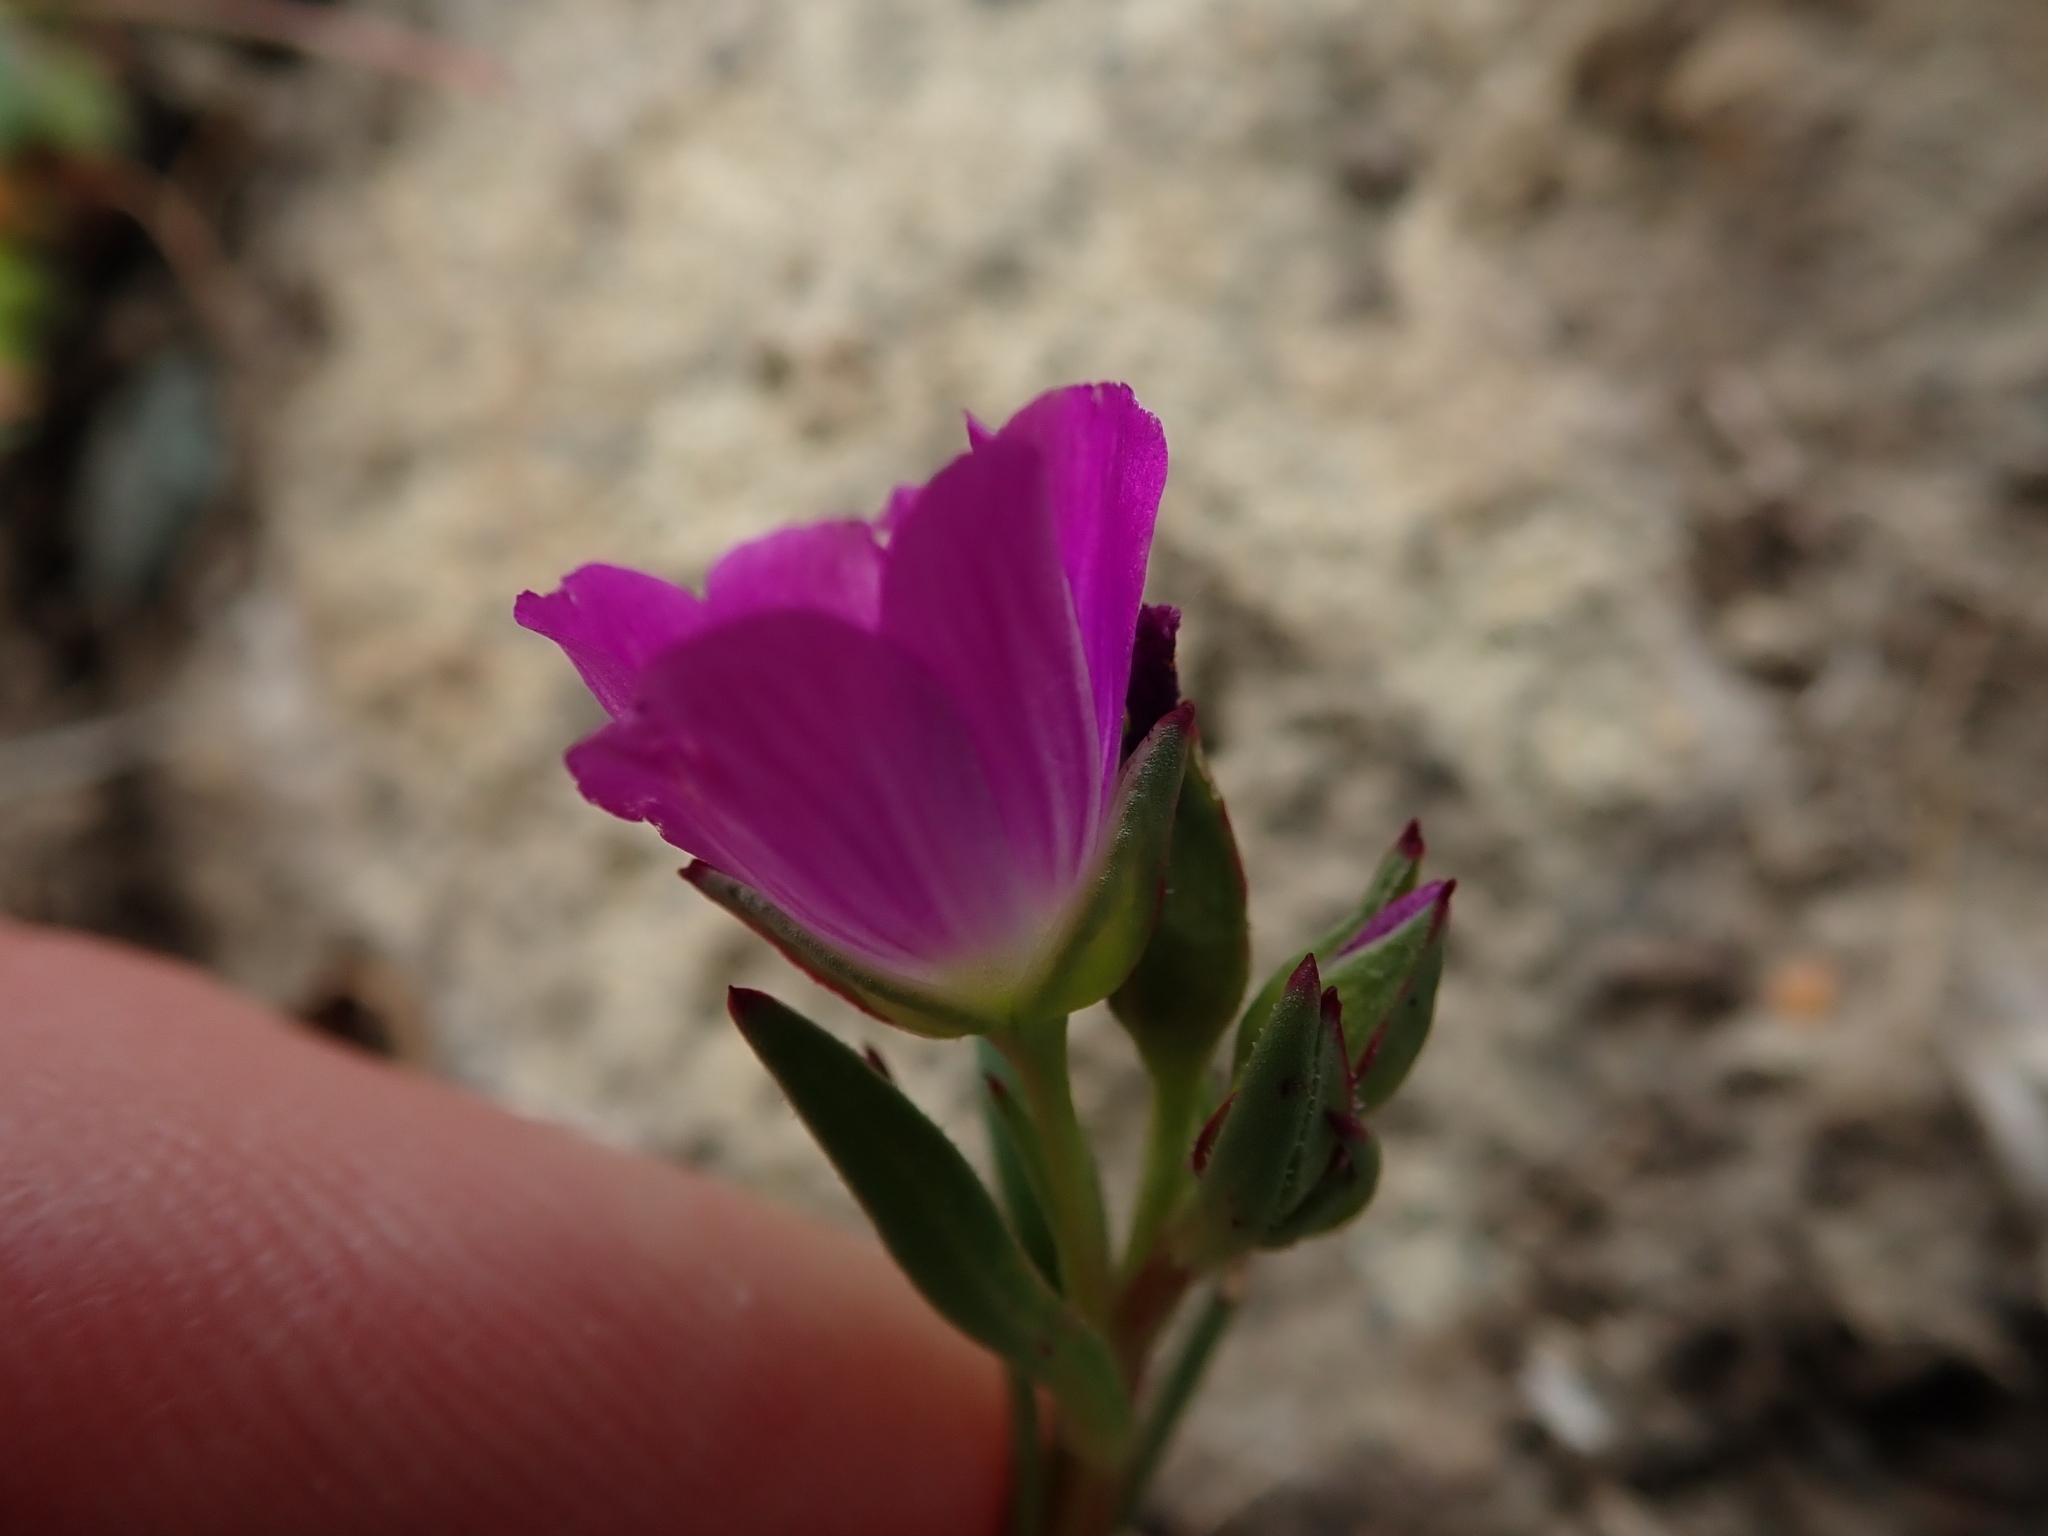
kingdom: Plantae
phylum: Tracheophyta
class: Magnoliopsida
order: Caryophyllales
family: Montiaceae
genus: Calandrinia
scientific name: Calandrinia menziesii
